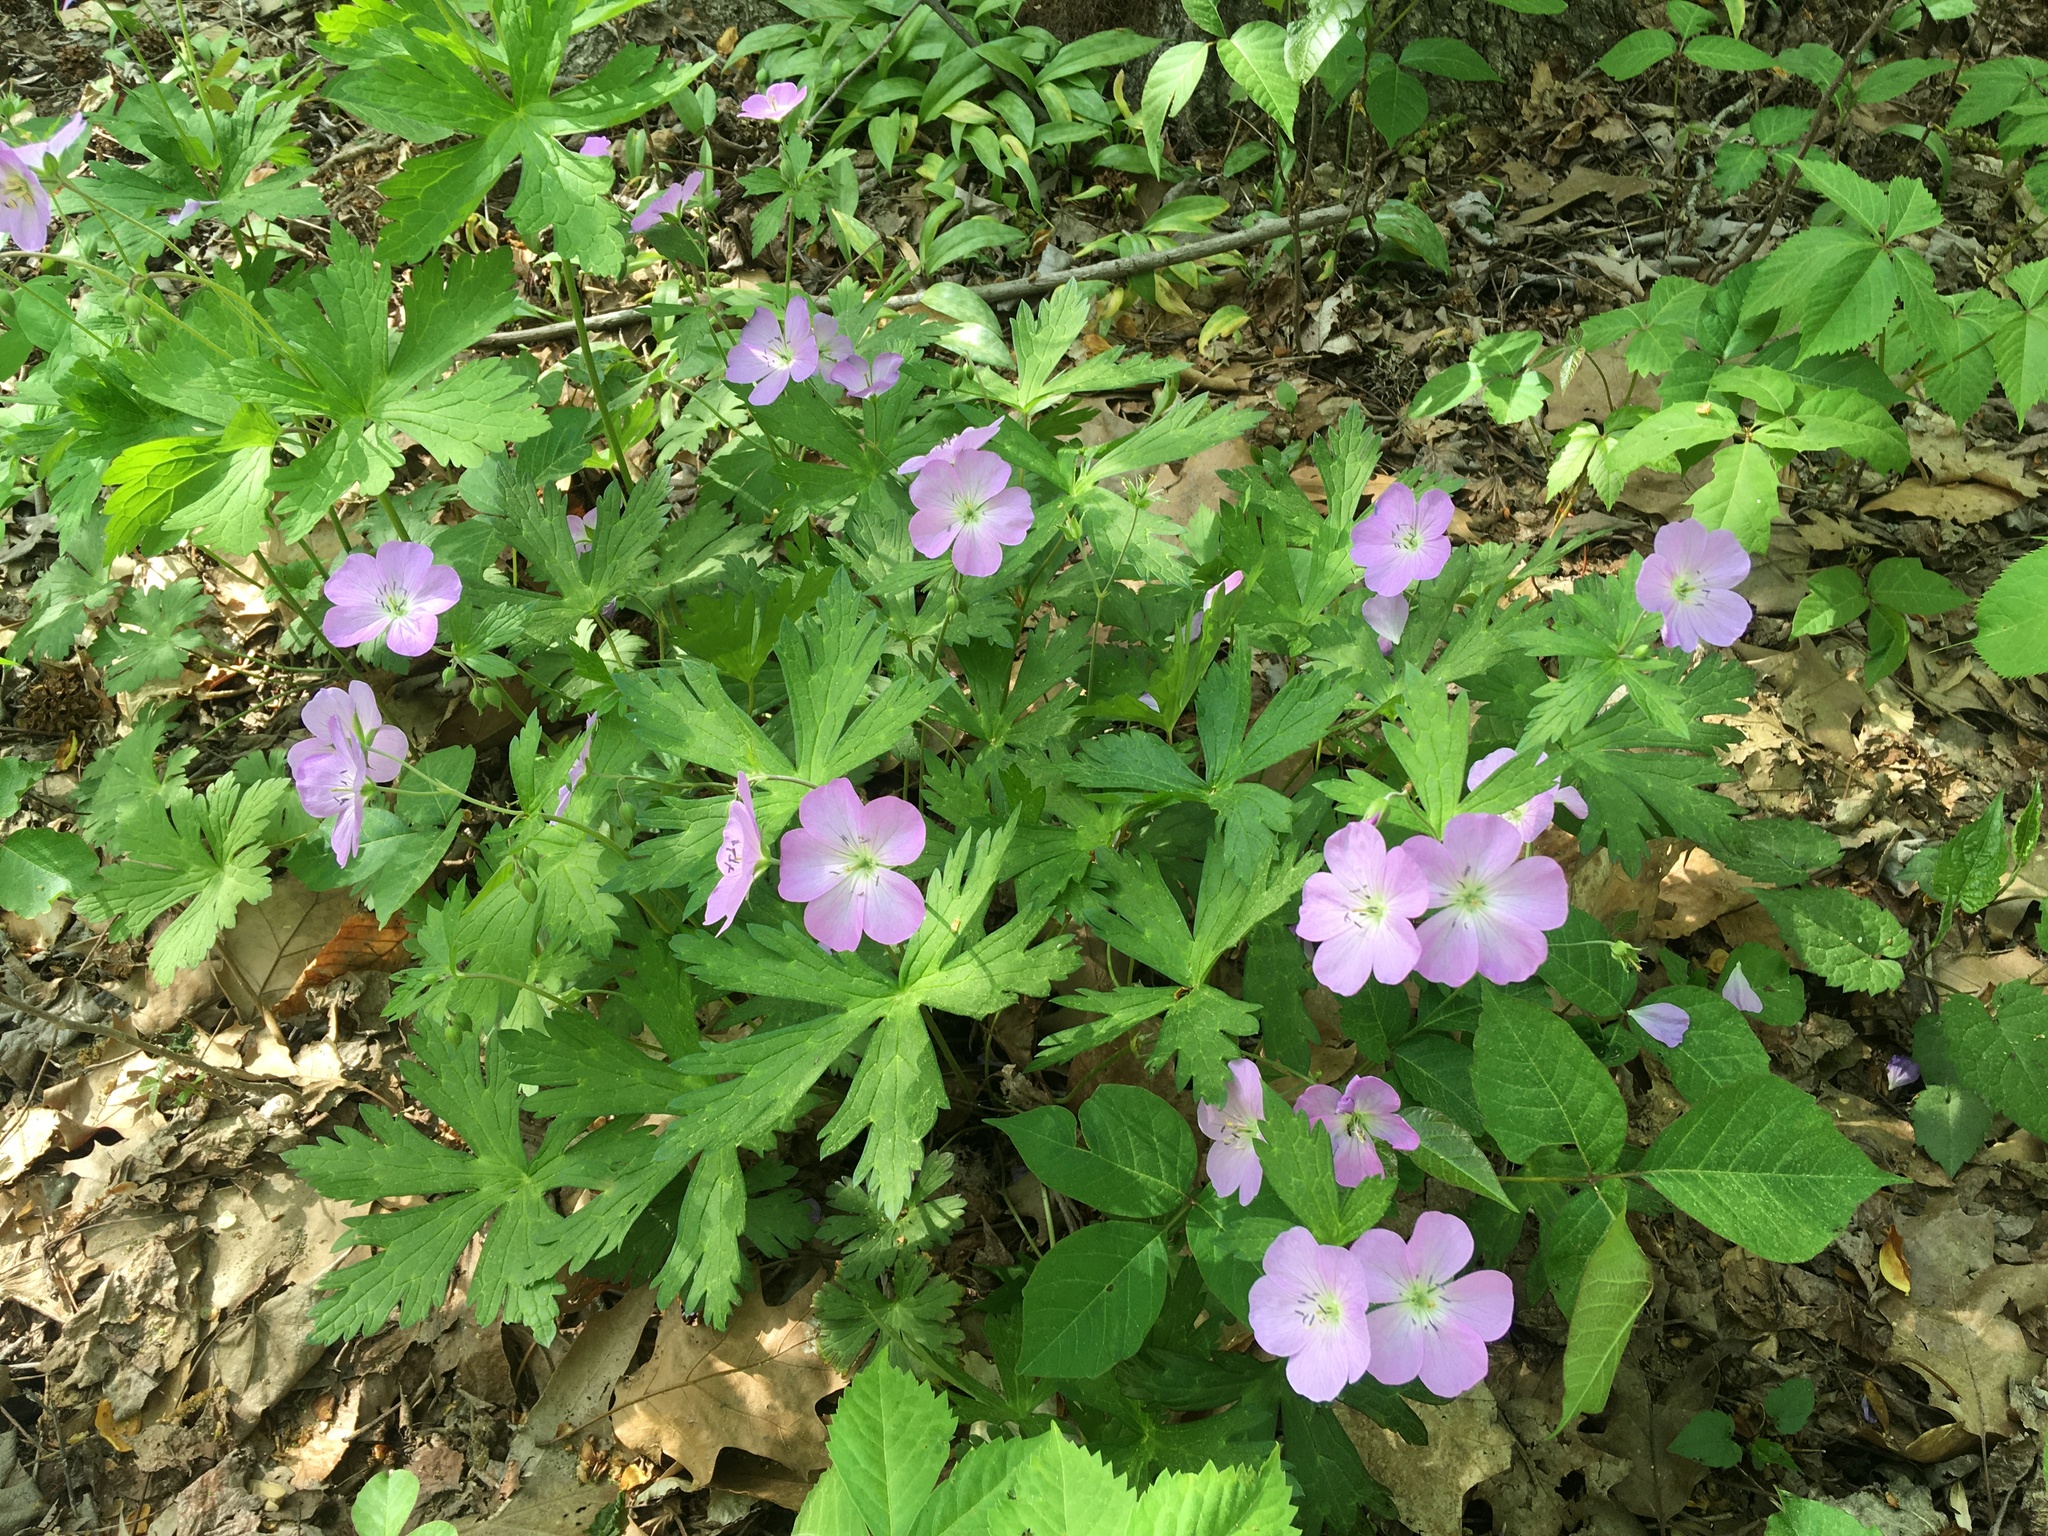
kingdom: Plantae
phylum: Tracheophyta
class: Magnoliopsida
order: Geraniales
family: Geraniaceae
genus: Geranium
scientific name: Geranium maculatum
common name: Spotted geranium
